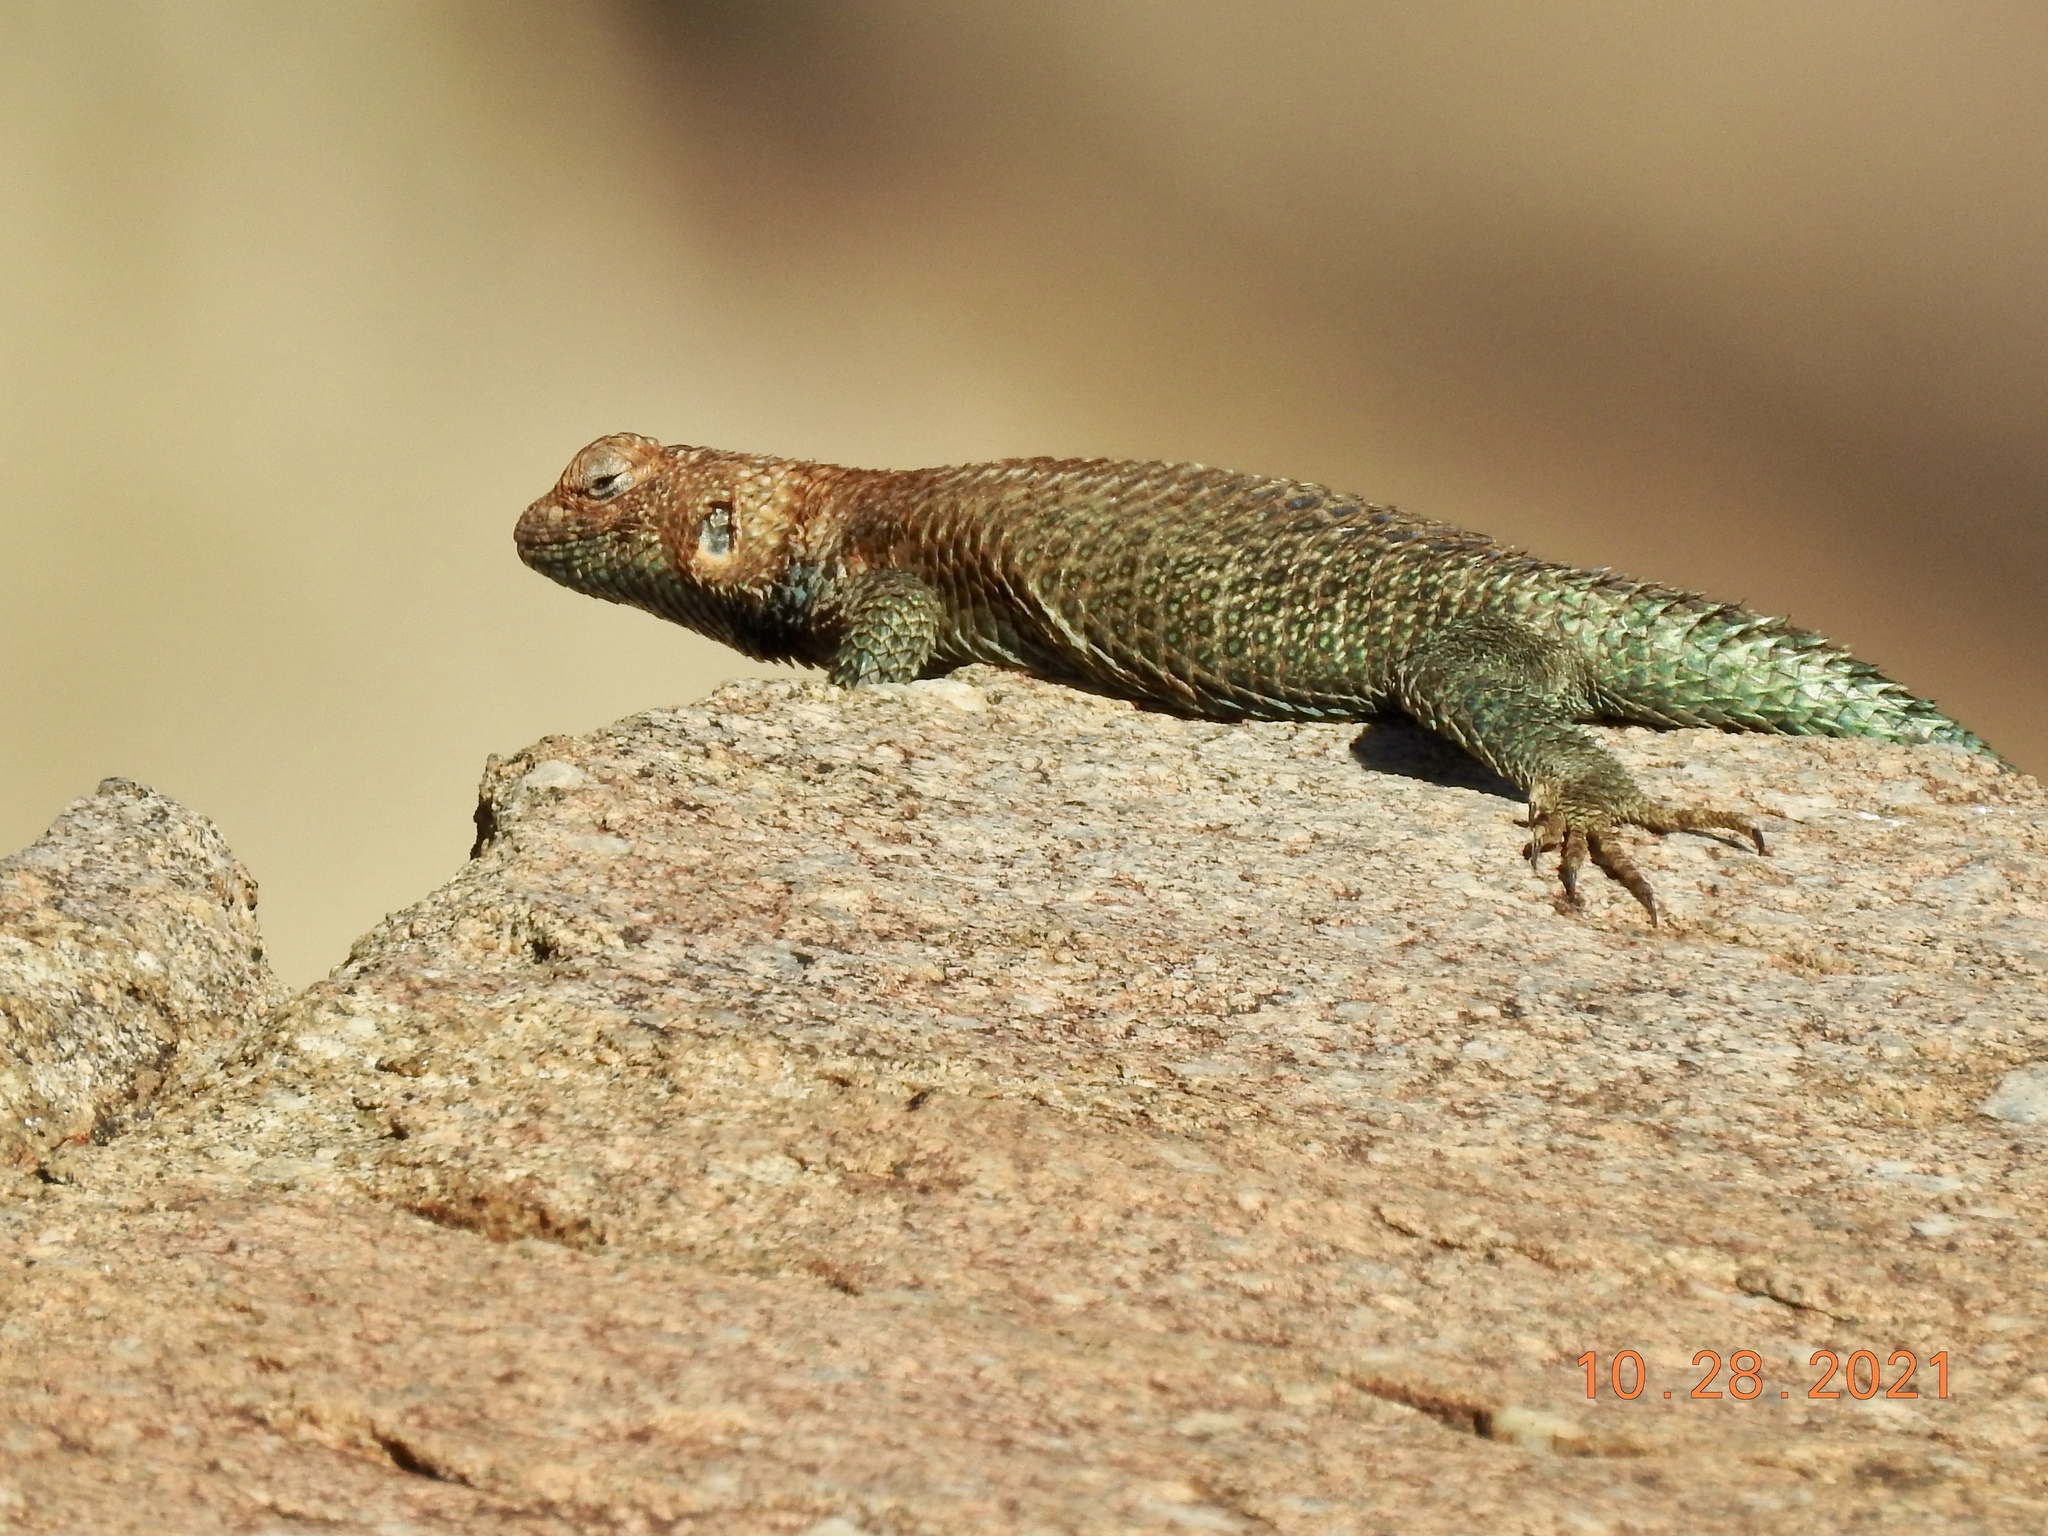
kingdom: Animalia
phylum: Chordata
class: Squamata
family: Phrynosomatidae
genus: Sceloporus
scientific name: Sceloporus orcutti
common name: Granite spiny lizard
